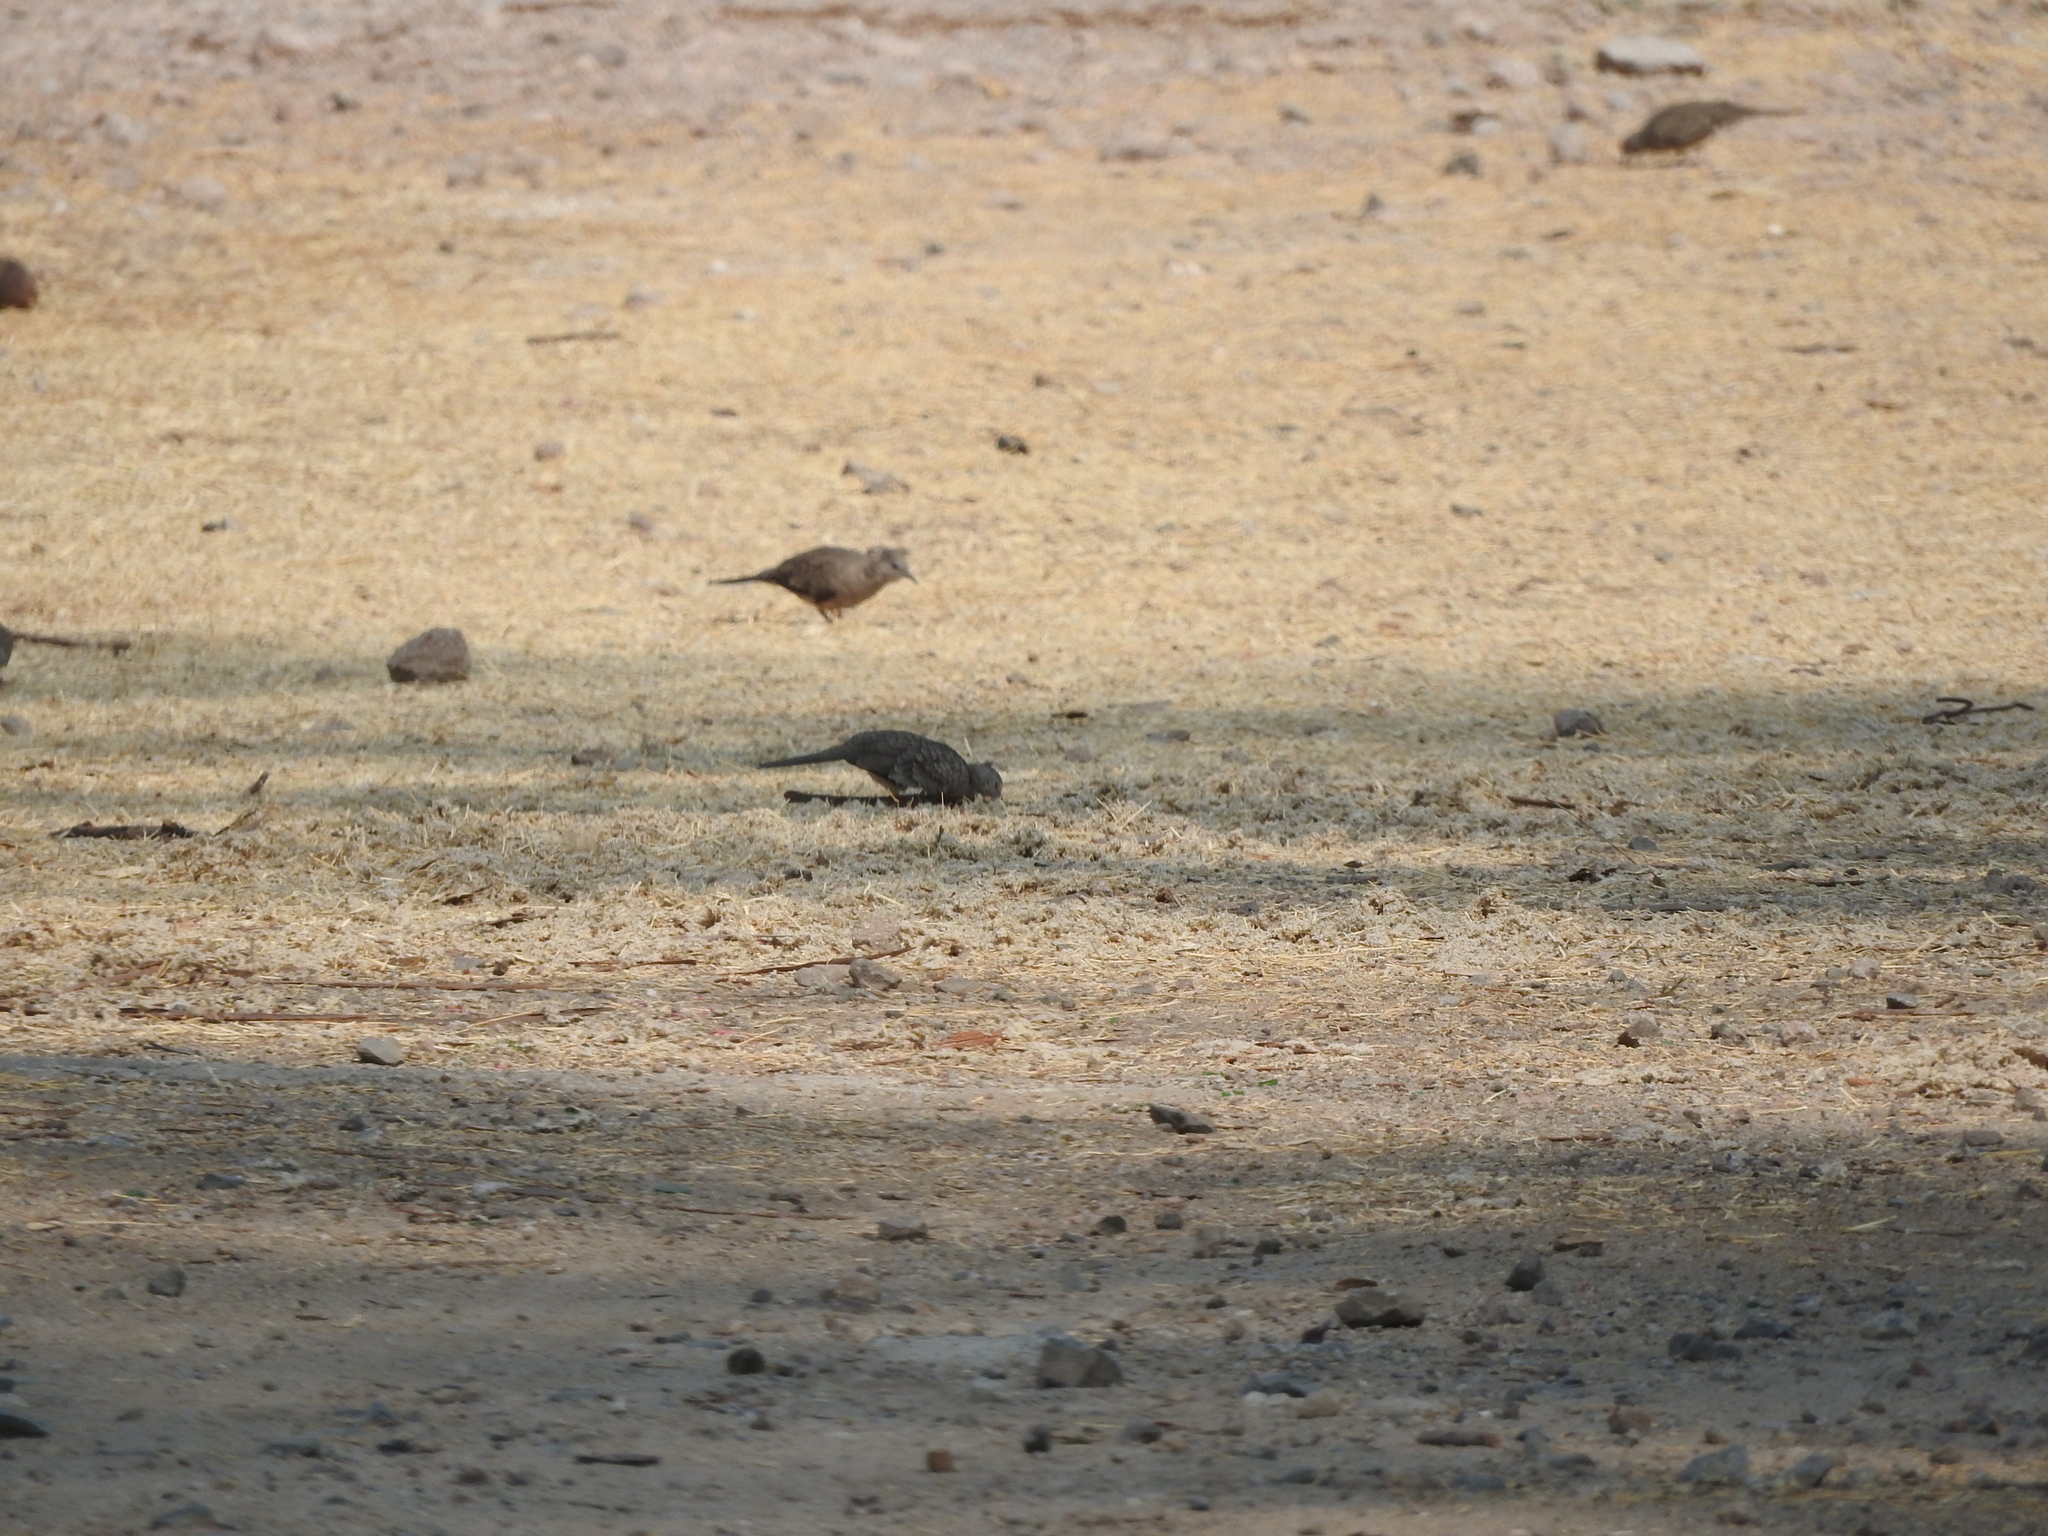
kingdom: Animalia
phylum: Chordata
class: Aves
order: Columbiformes
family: Columbidae
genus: Columbina
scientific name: Columbina inca
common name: Inca dove
